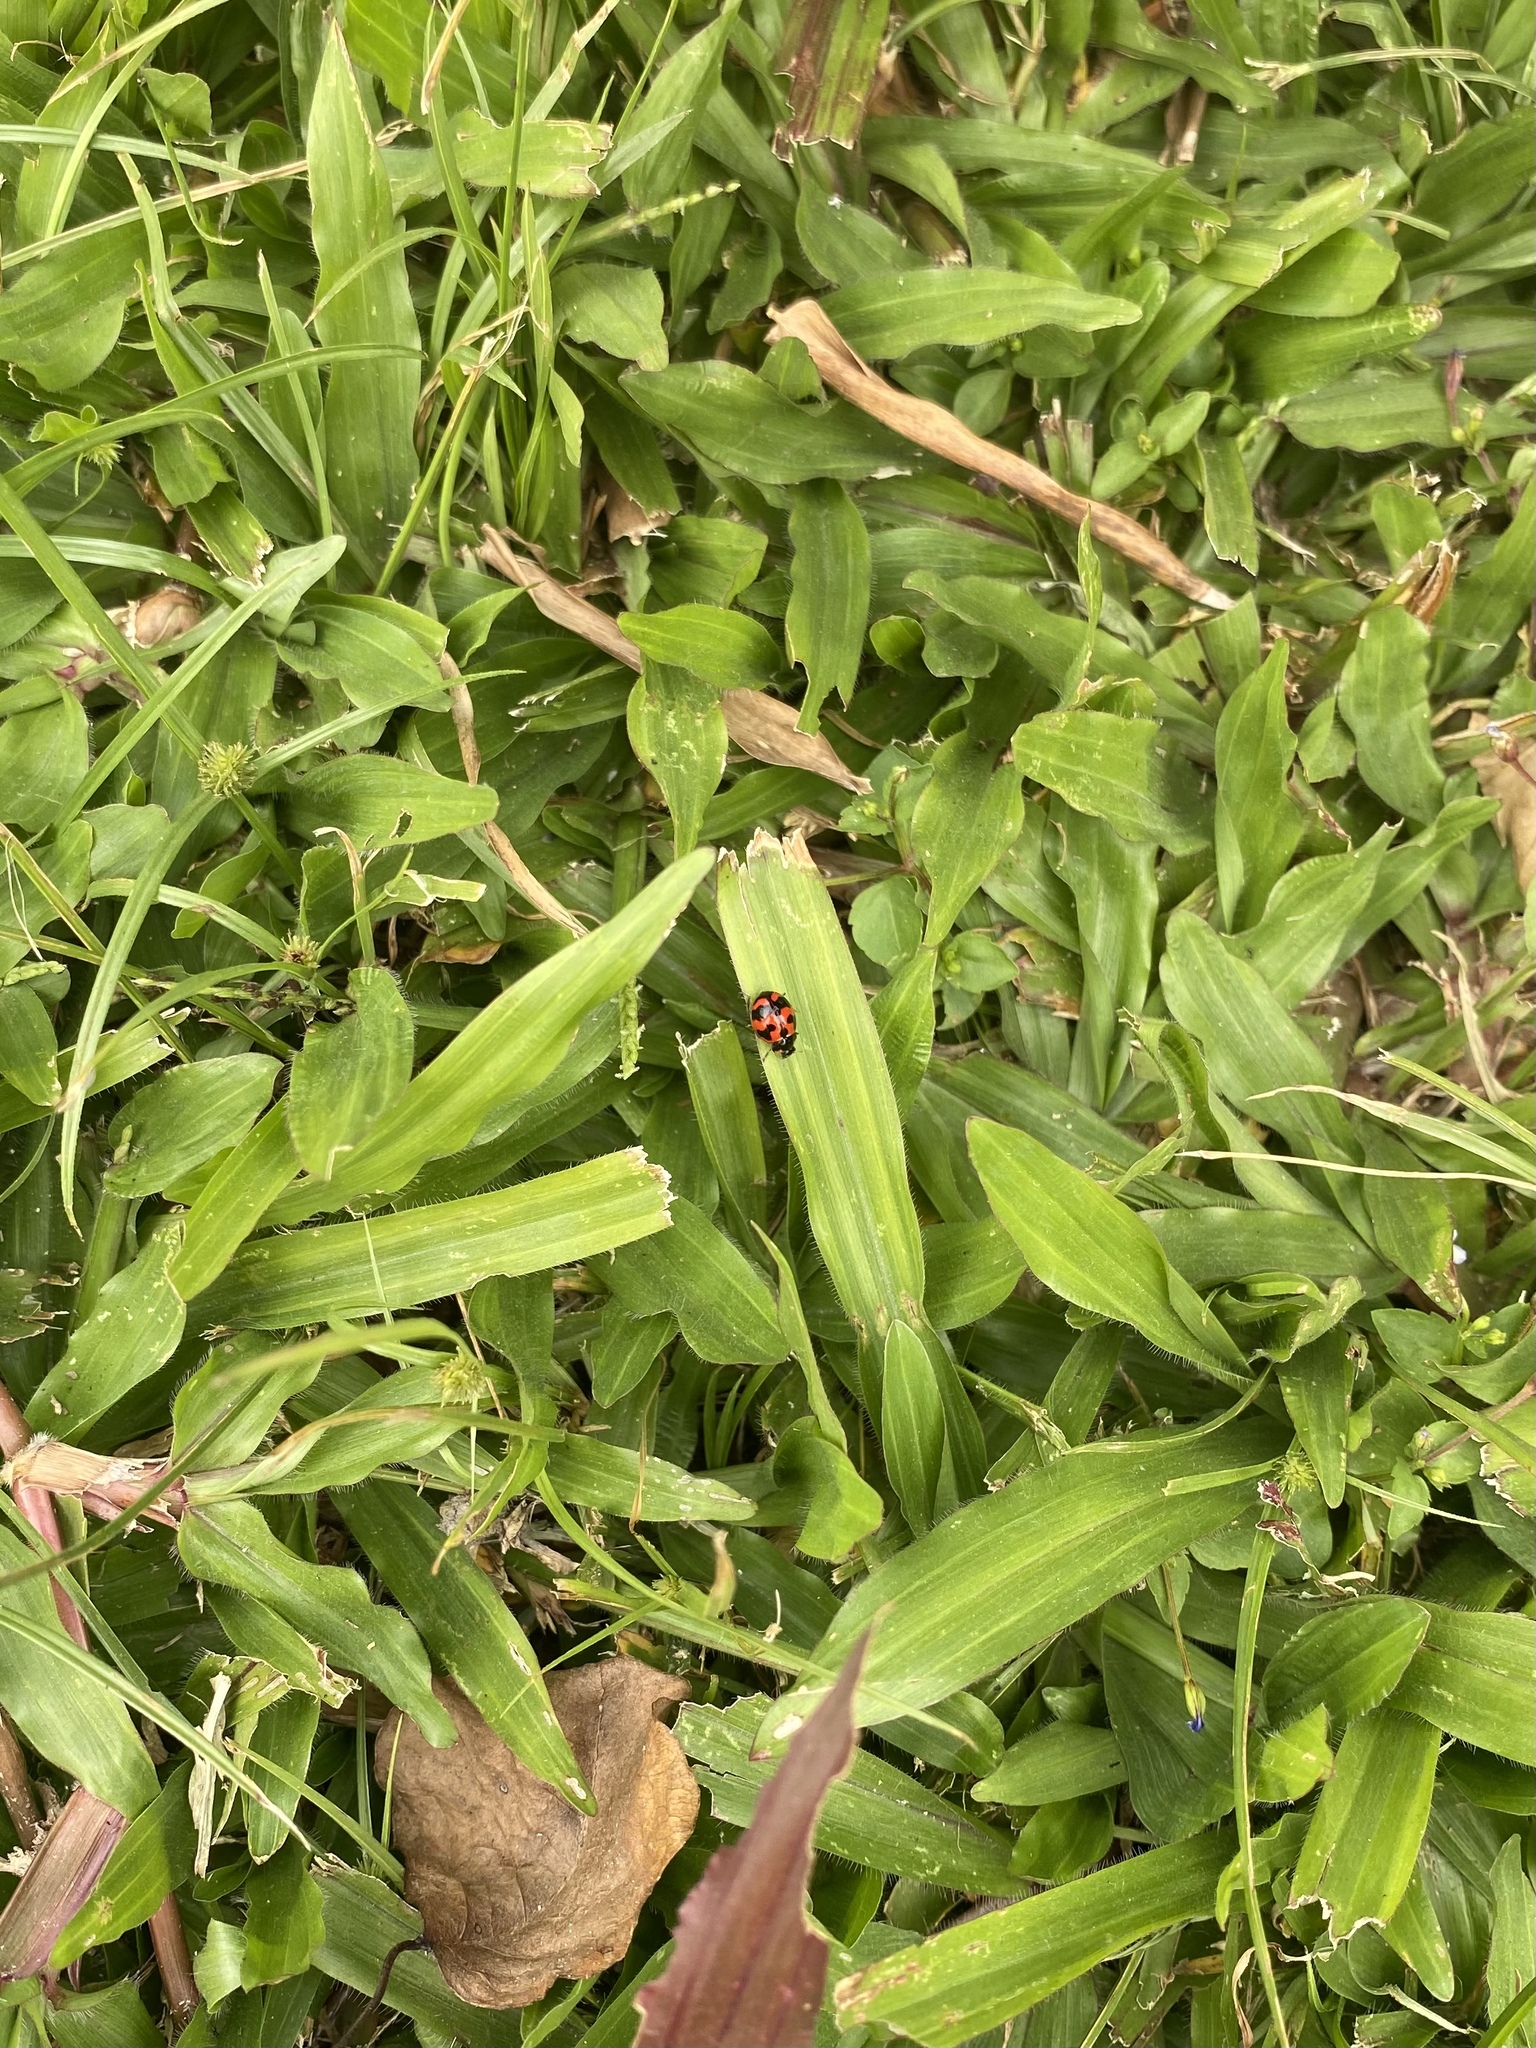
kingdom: Animalia
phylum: Arthropoda
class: Insecta
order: Coleoptera
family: Coccinellidae
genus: Coccinella
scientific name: Coccinella transversalis
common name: Transverse lady beetle
